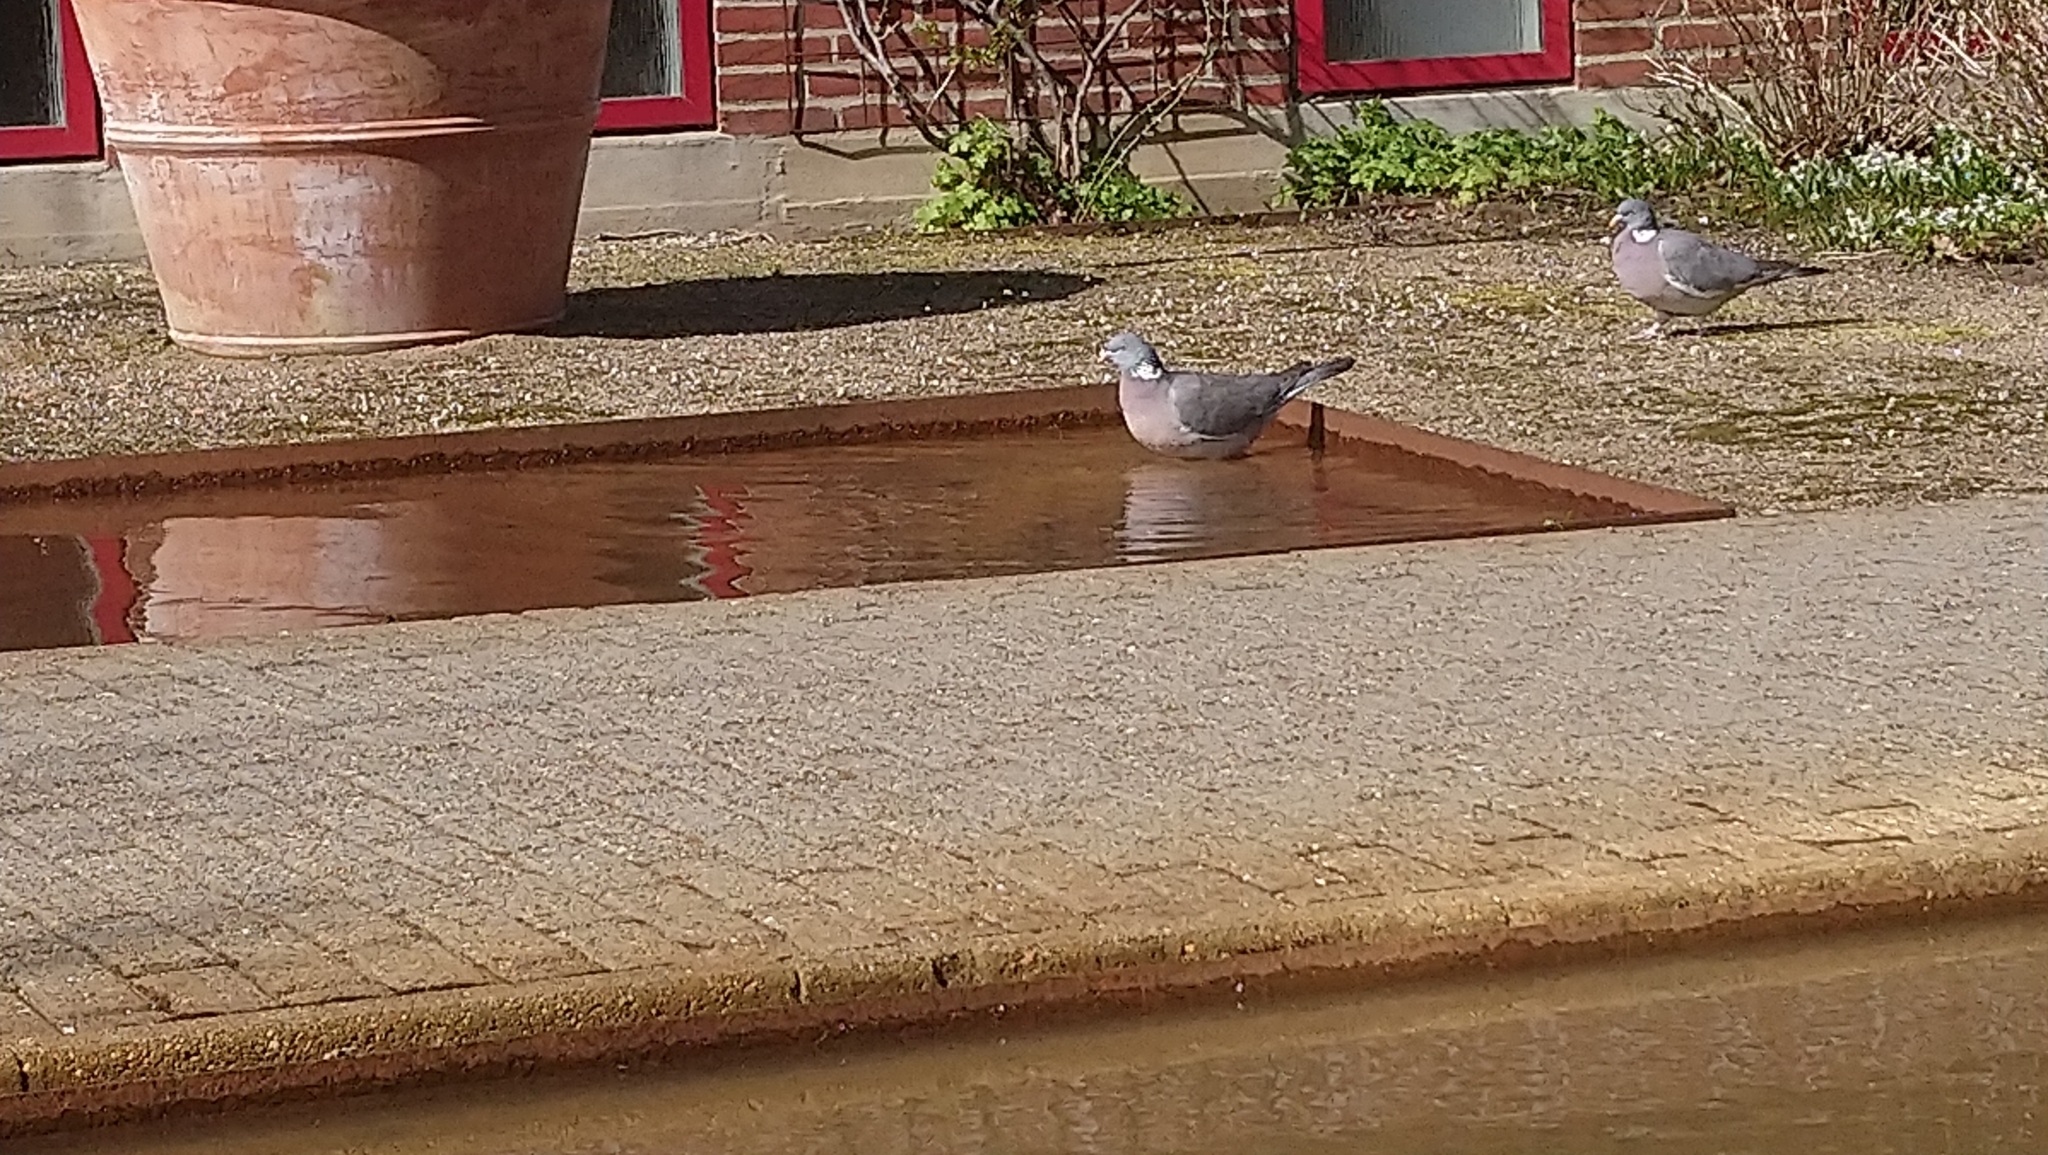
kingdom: Animalia
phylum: Chordata
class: Aves
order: Columbiformes
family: Columbidae
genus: Columba
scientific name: Columba palumbus
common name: Common wood pigeon
